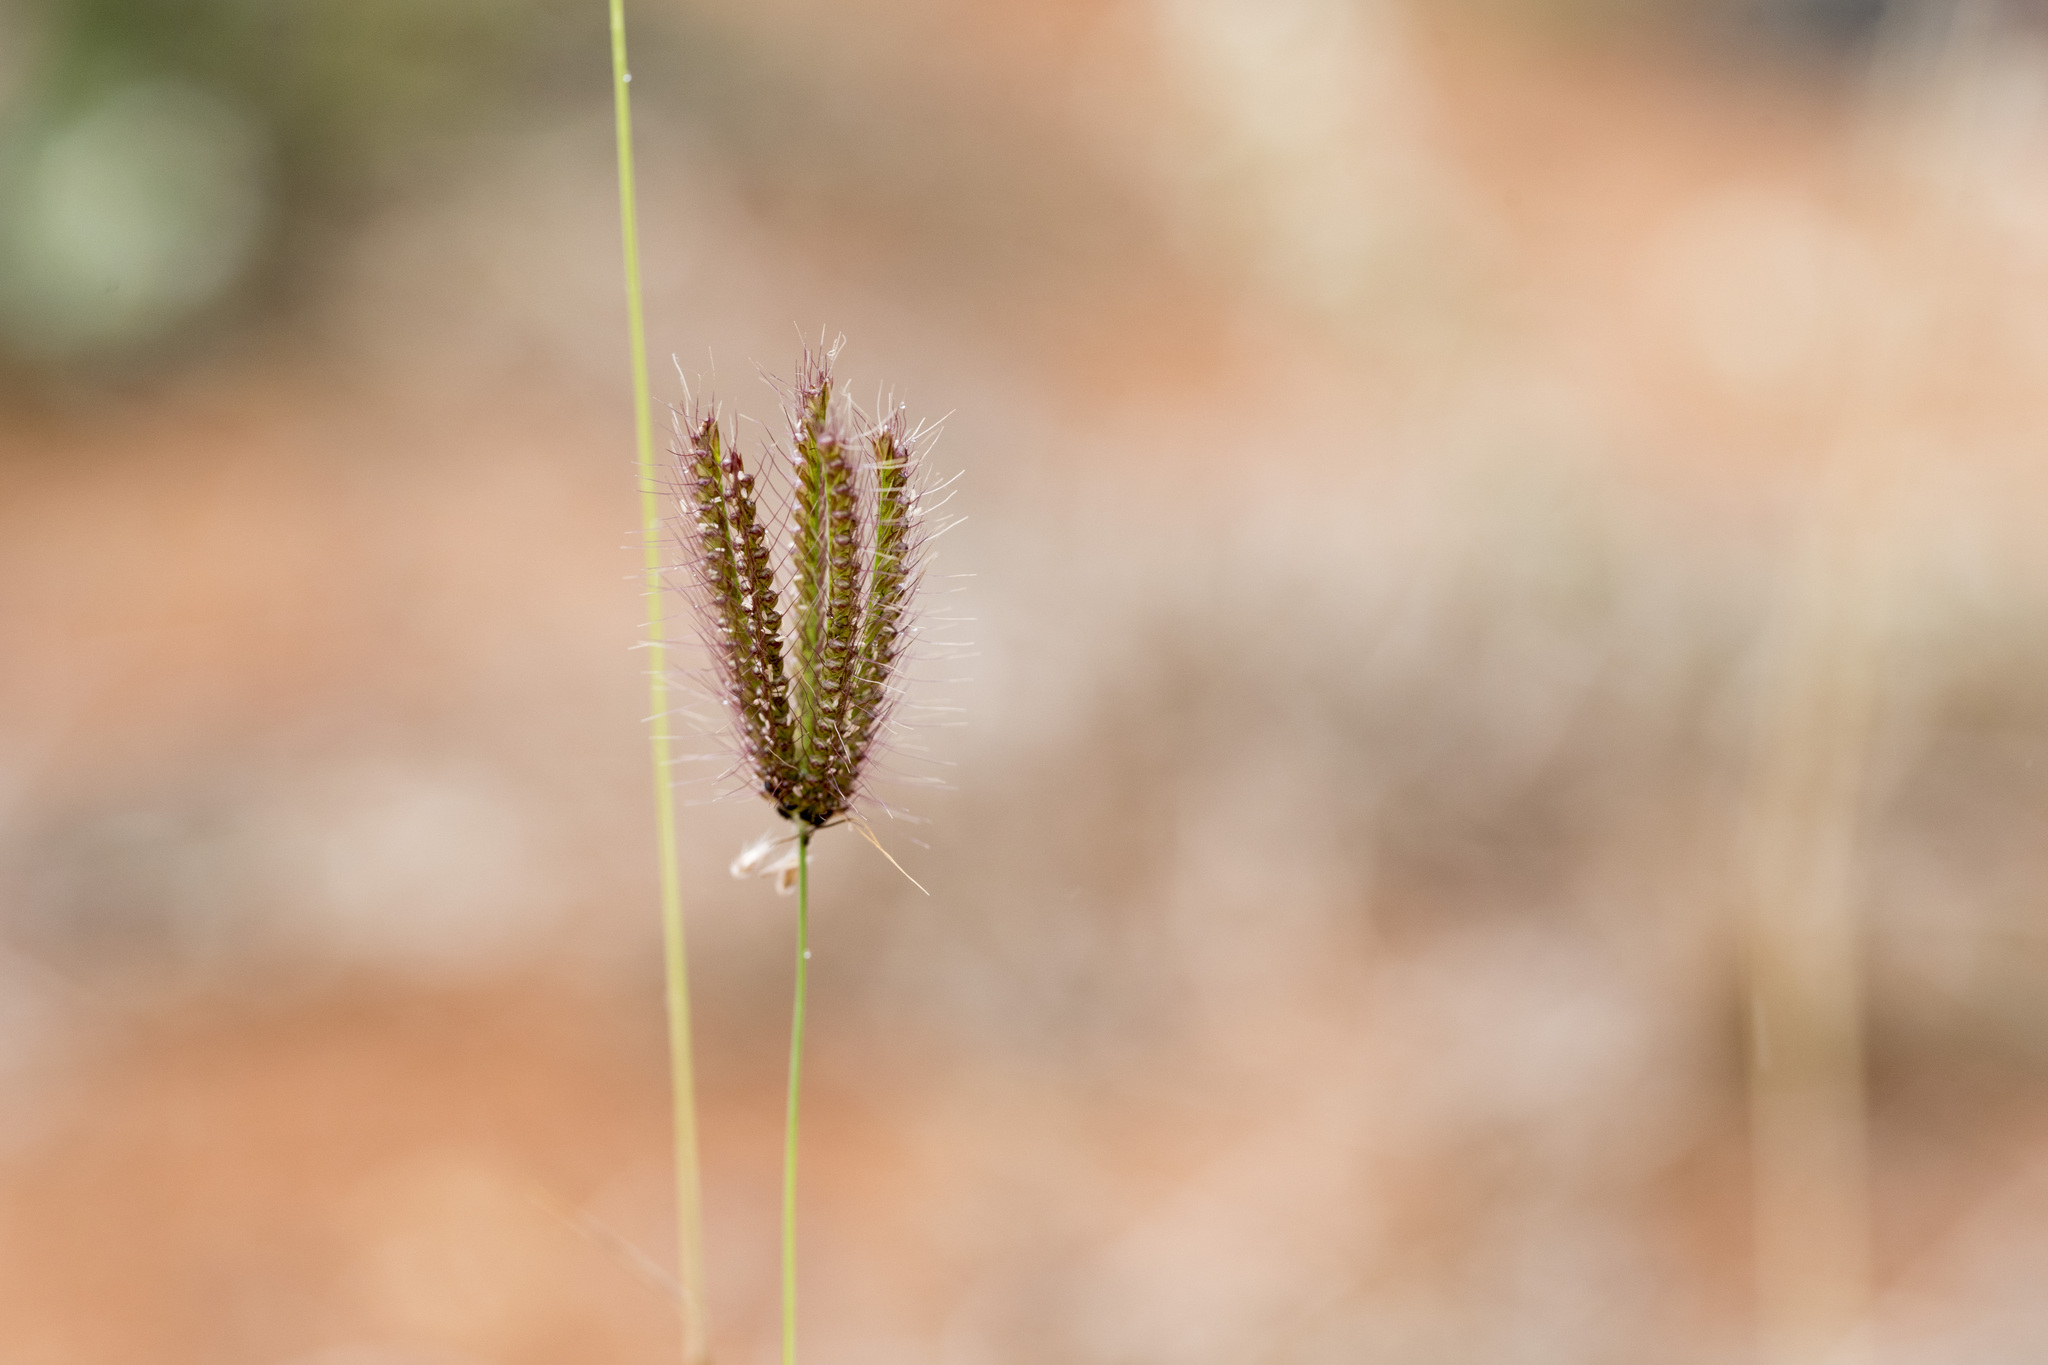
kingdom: Plantae
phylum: Tracheophyta
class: Liliopsida
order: Poales
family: Poaceae
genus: Chloris
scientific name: Chloris barbata
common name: Swollen fingergrass
